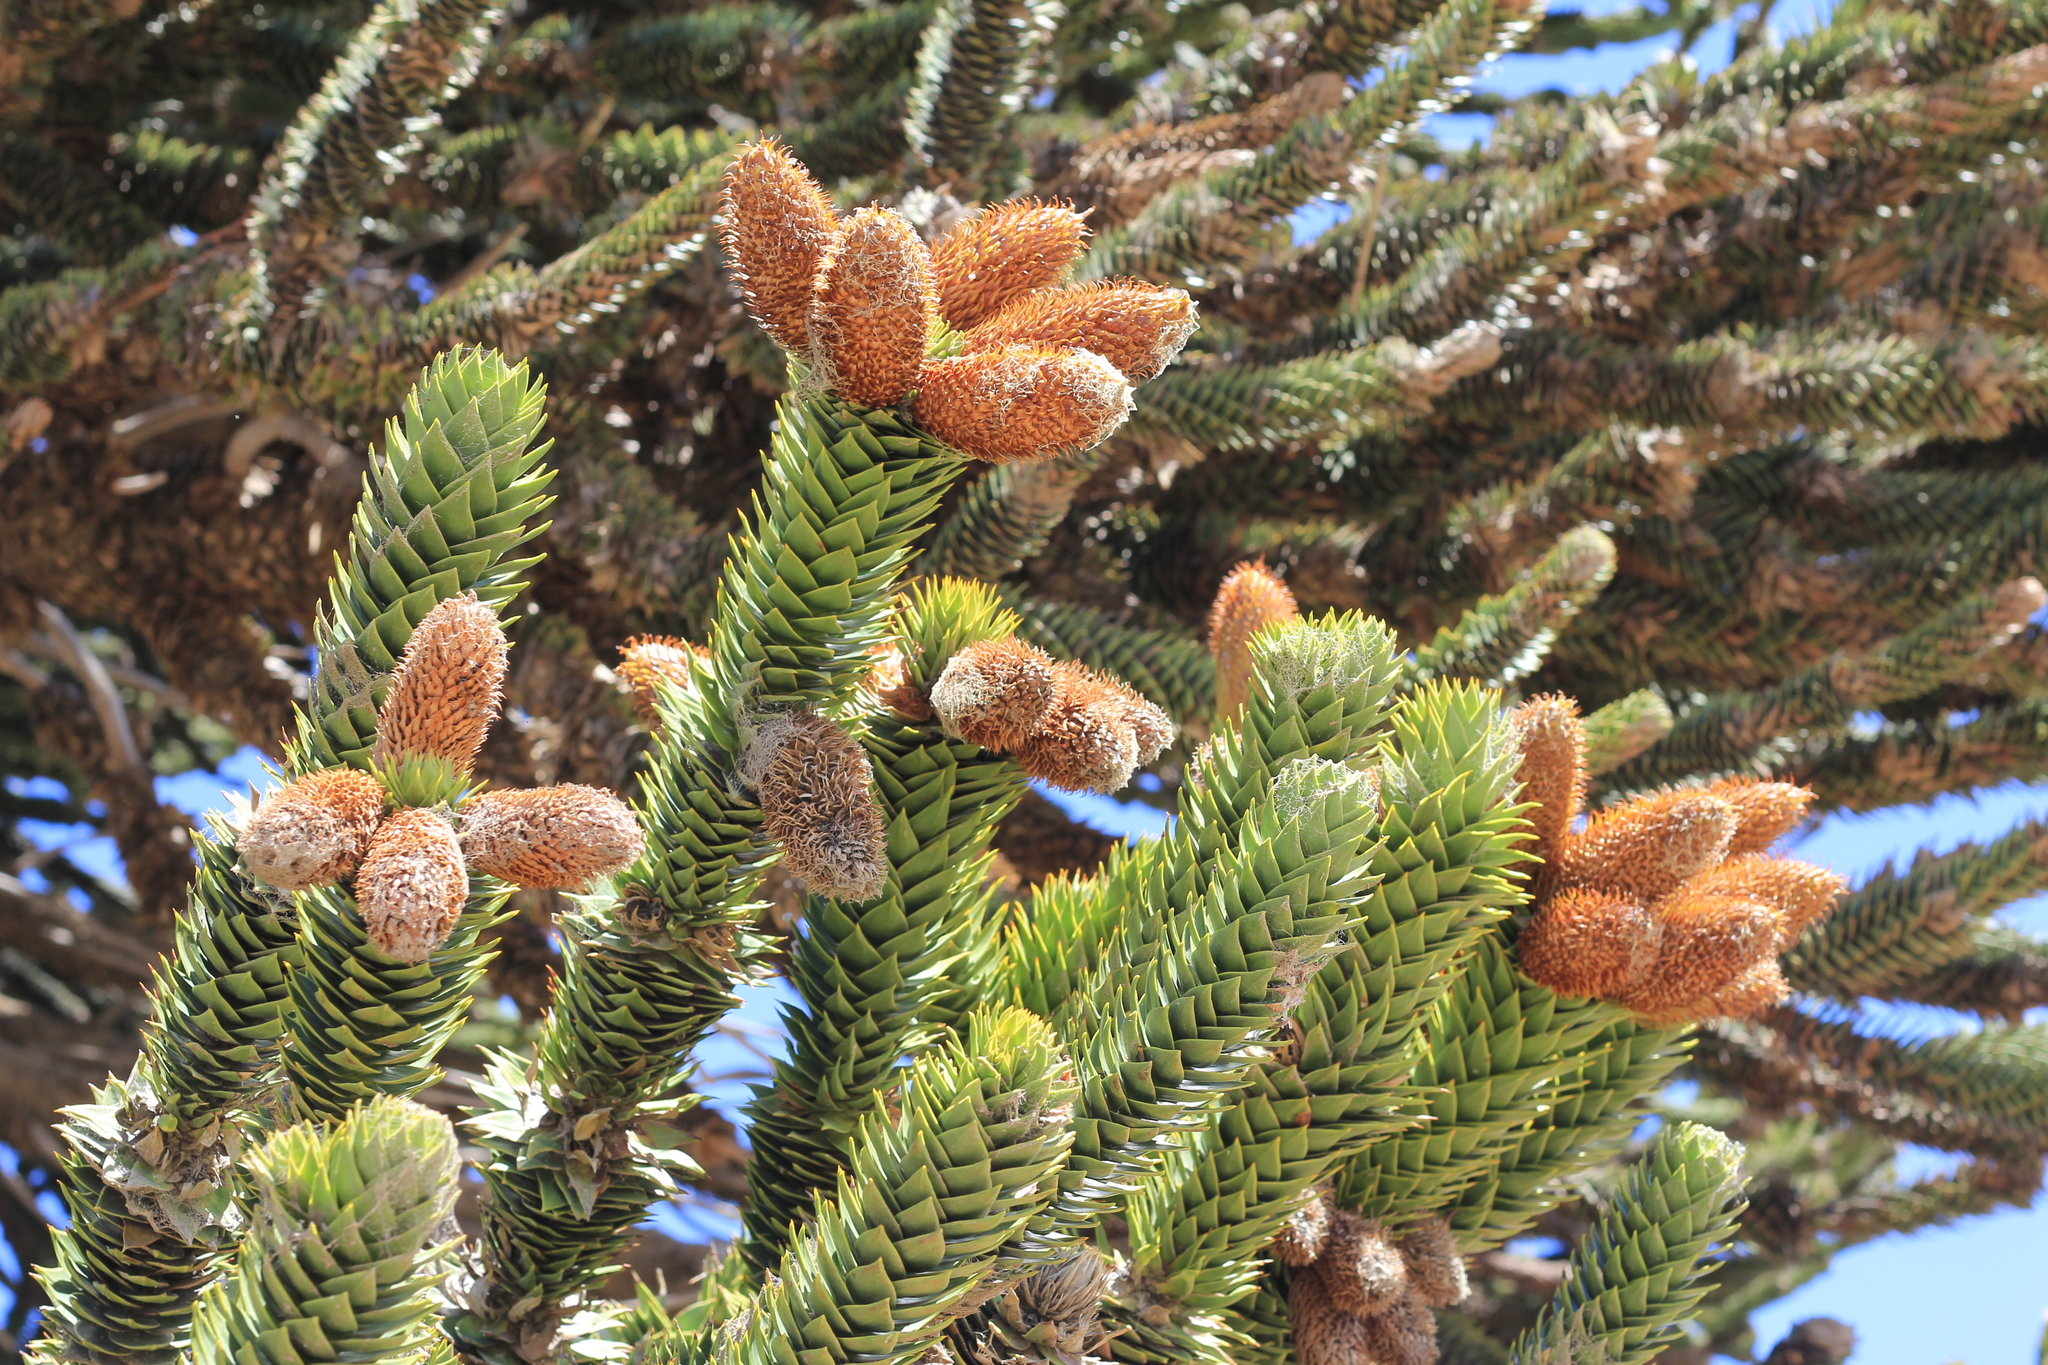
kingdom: Plantae
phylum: Tracheophyta
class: Pinopsida
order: Pinales
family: Araucariaceae
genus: Araucaria
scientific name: Araucaria araucana
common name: Monkey-puzzle
